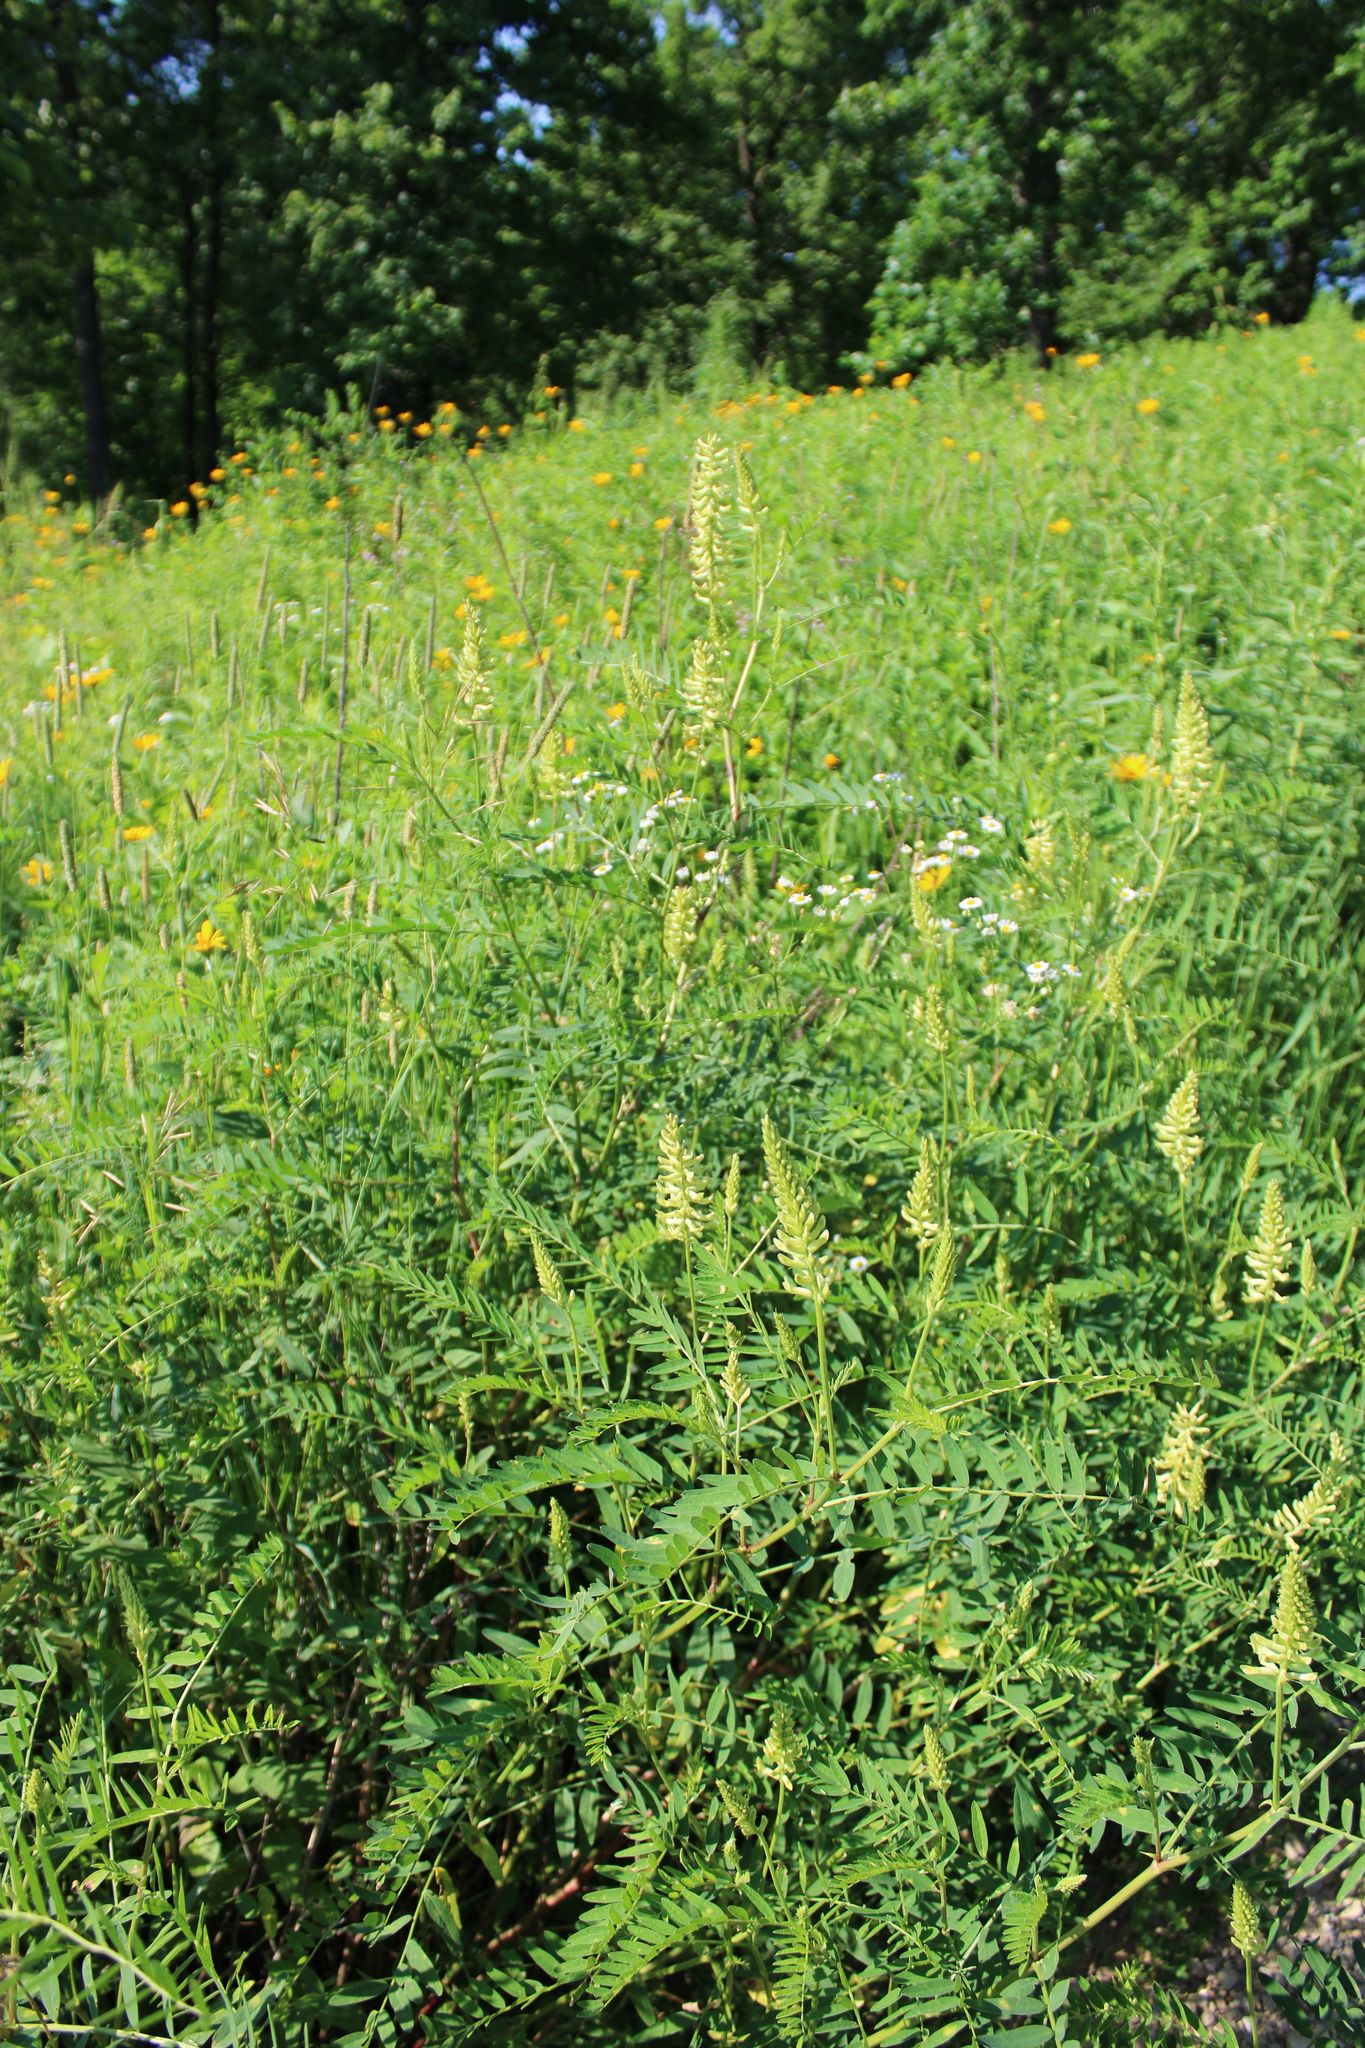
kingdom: Plantae
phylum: Tracheophyta
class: Magnoliopsida
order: Fabales
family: Fabaceae
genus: Astragalus
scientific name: Astragalus canadensis
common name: Canada milk-vetch
